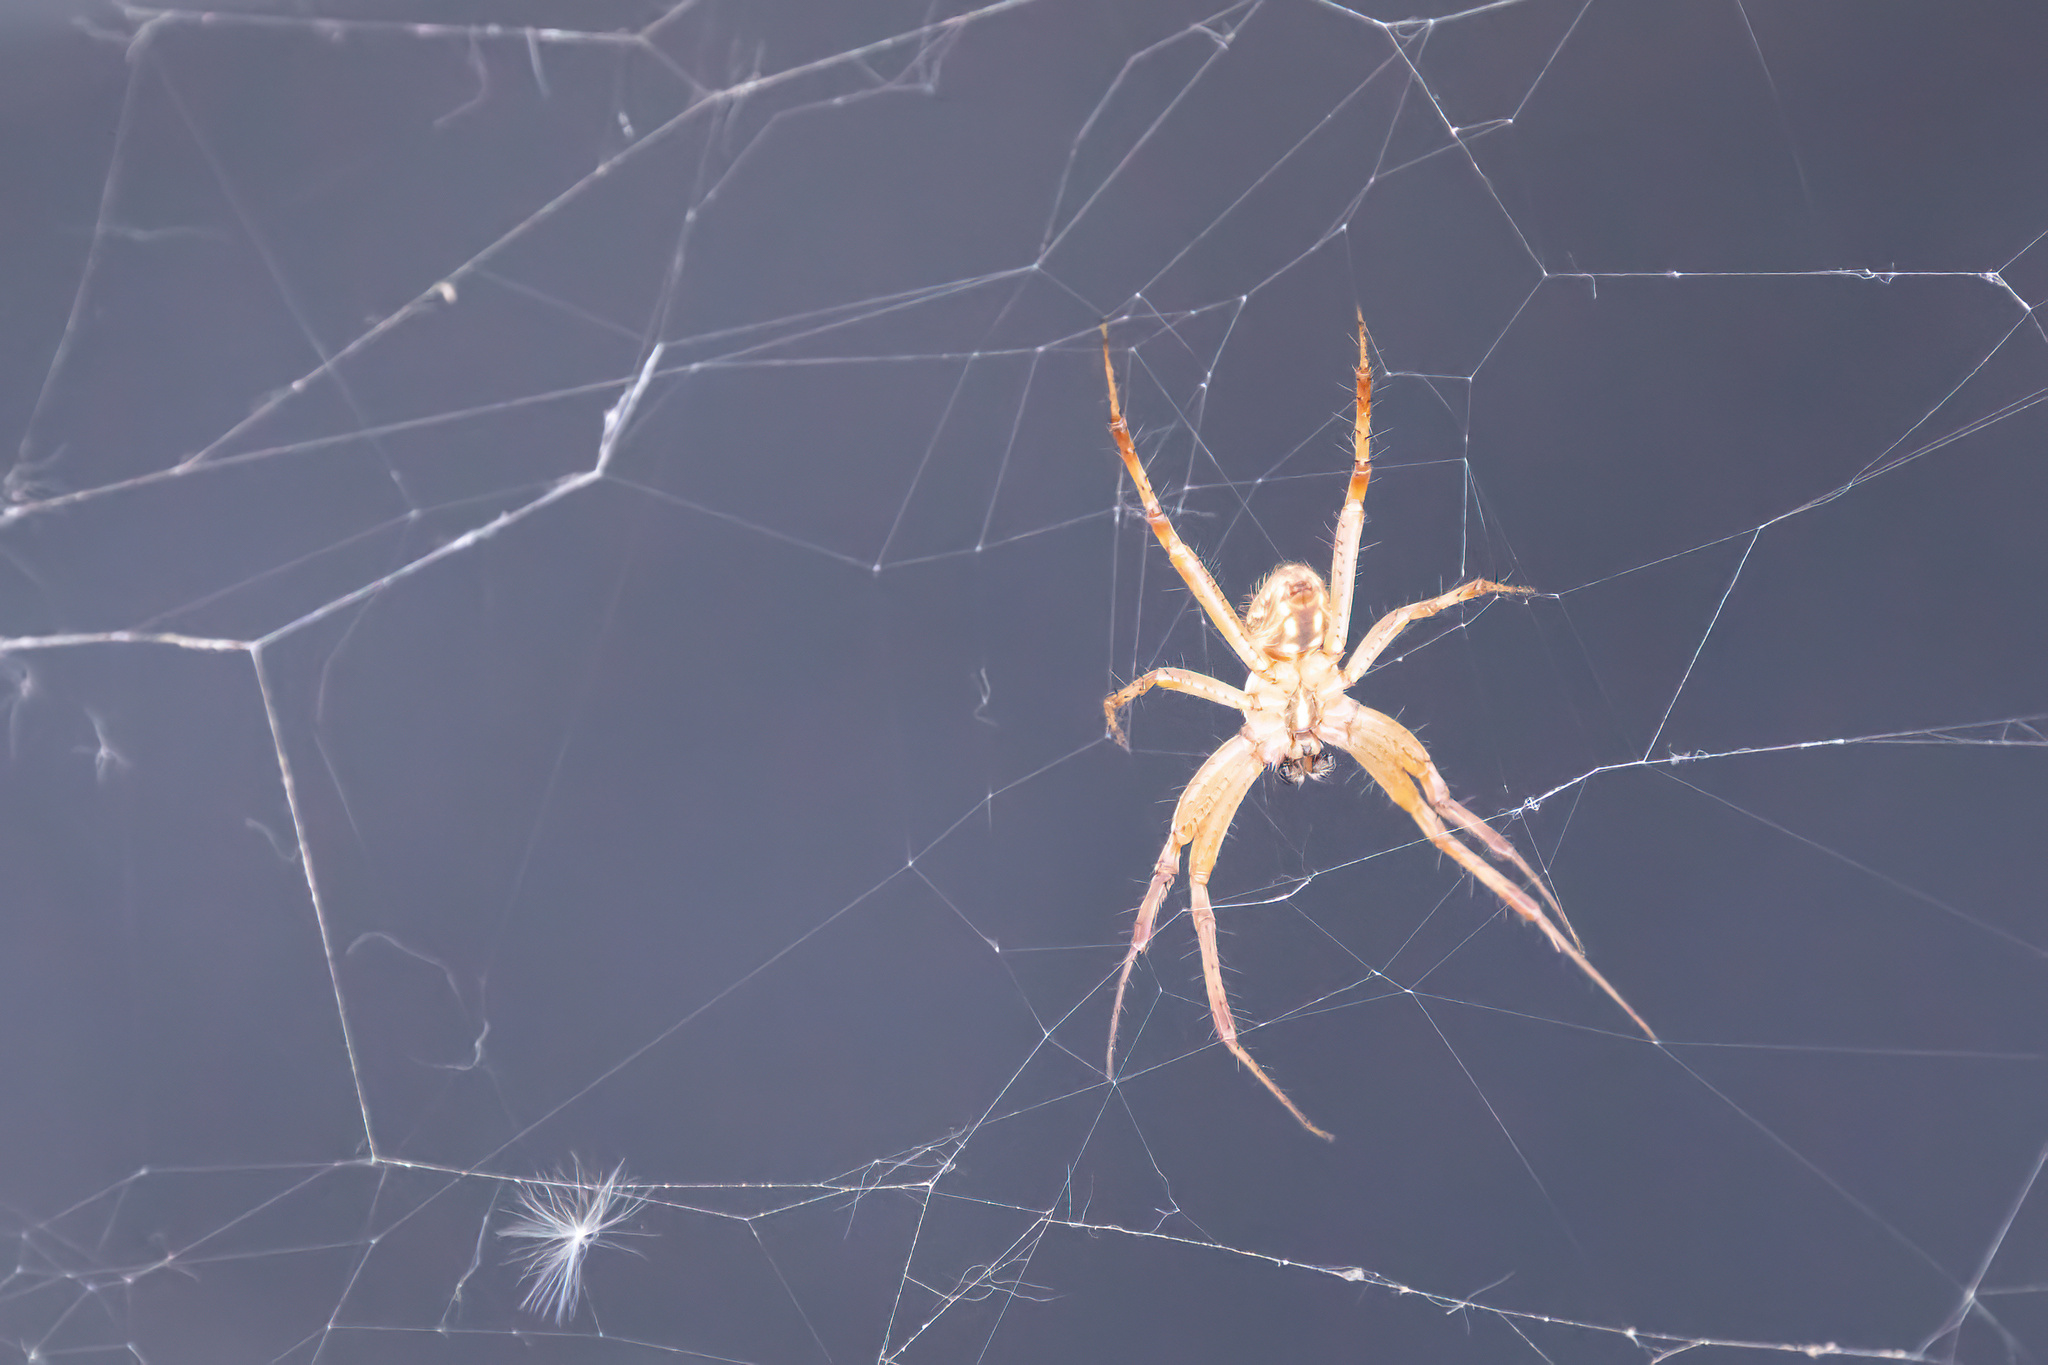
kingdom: Animalia
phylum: Arthropoda
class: Arachnida
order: Araneae
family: Araneidae
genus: Neoscona
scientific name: Neoscona oaxacensis
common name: Orb weavers
